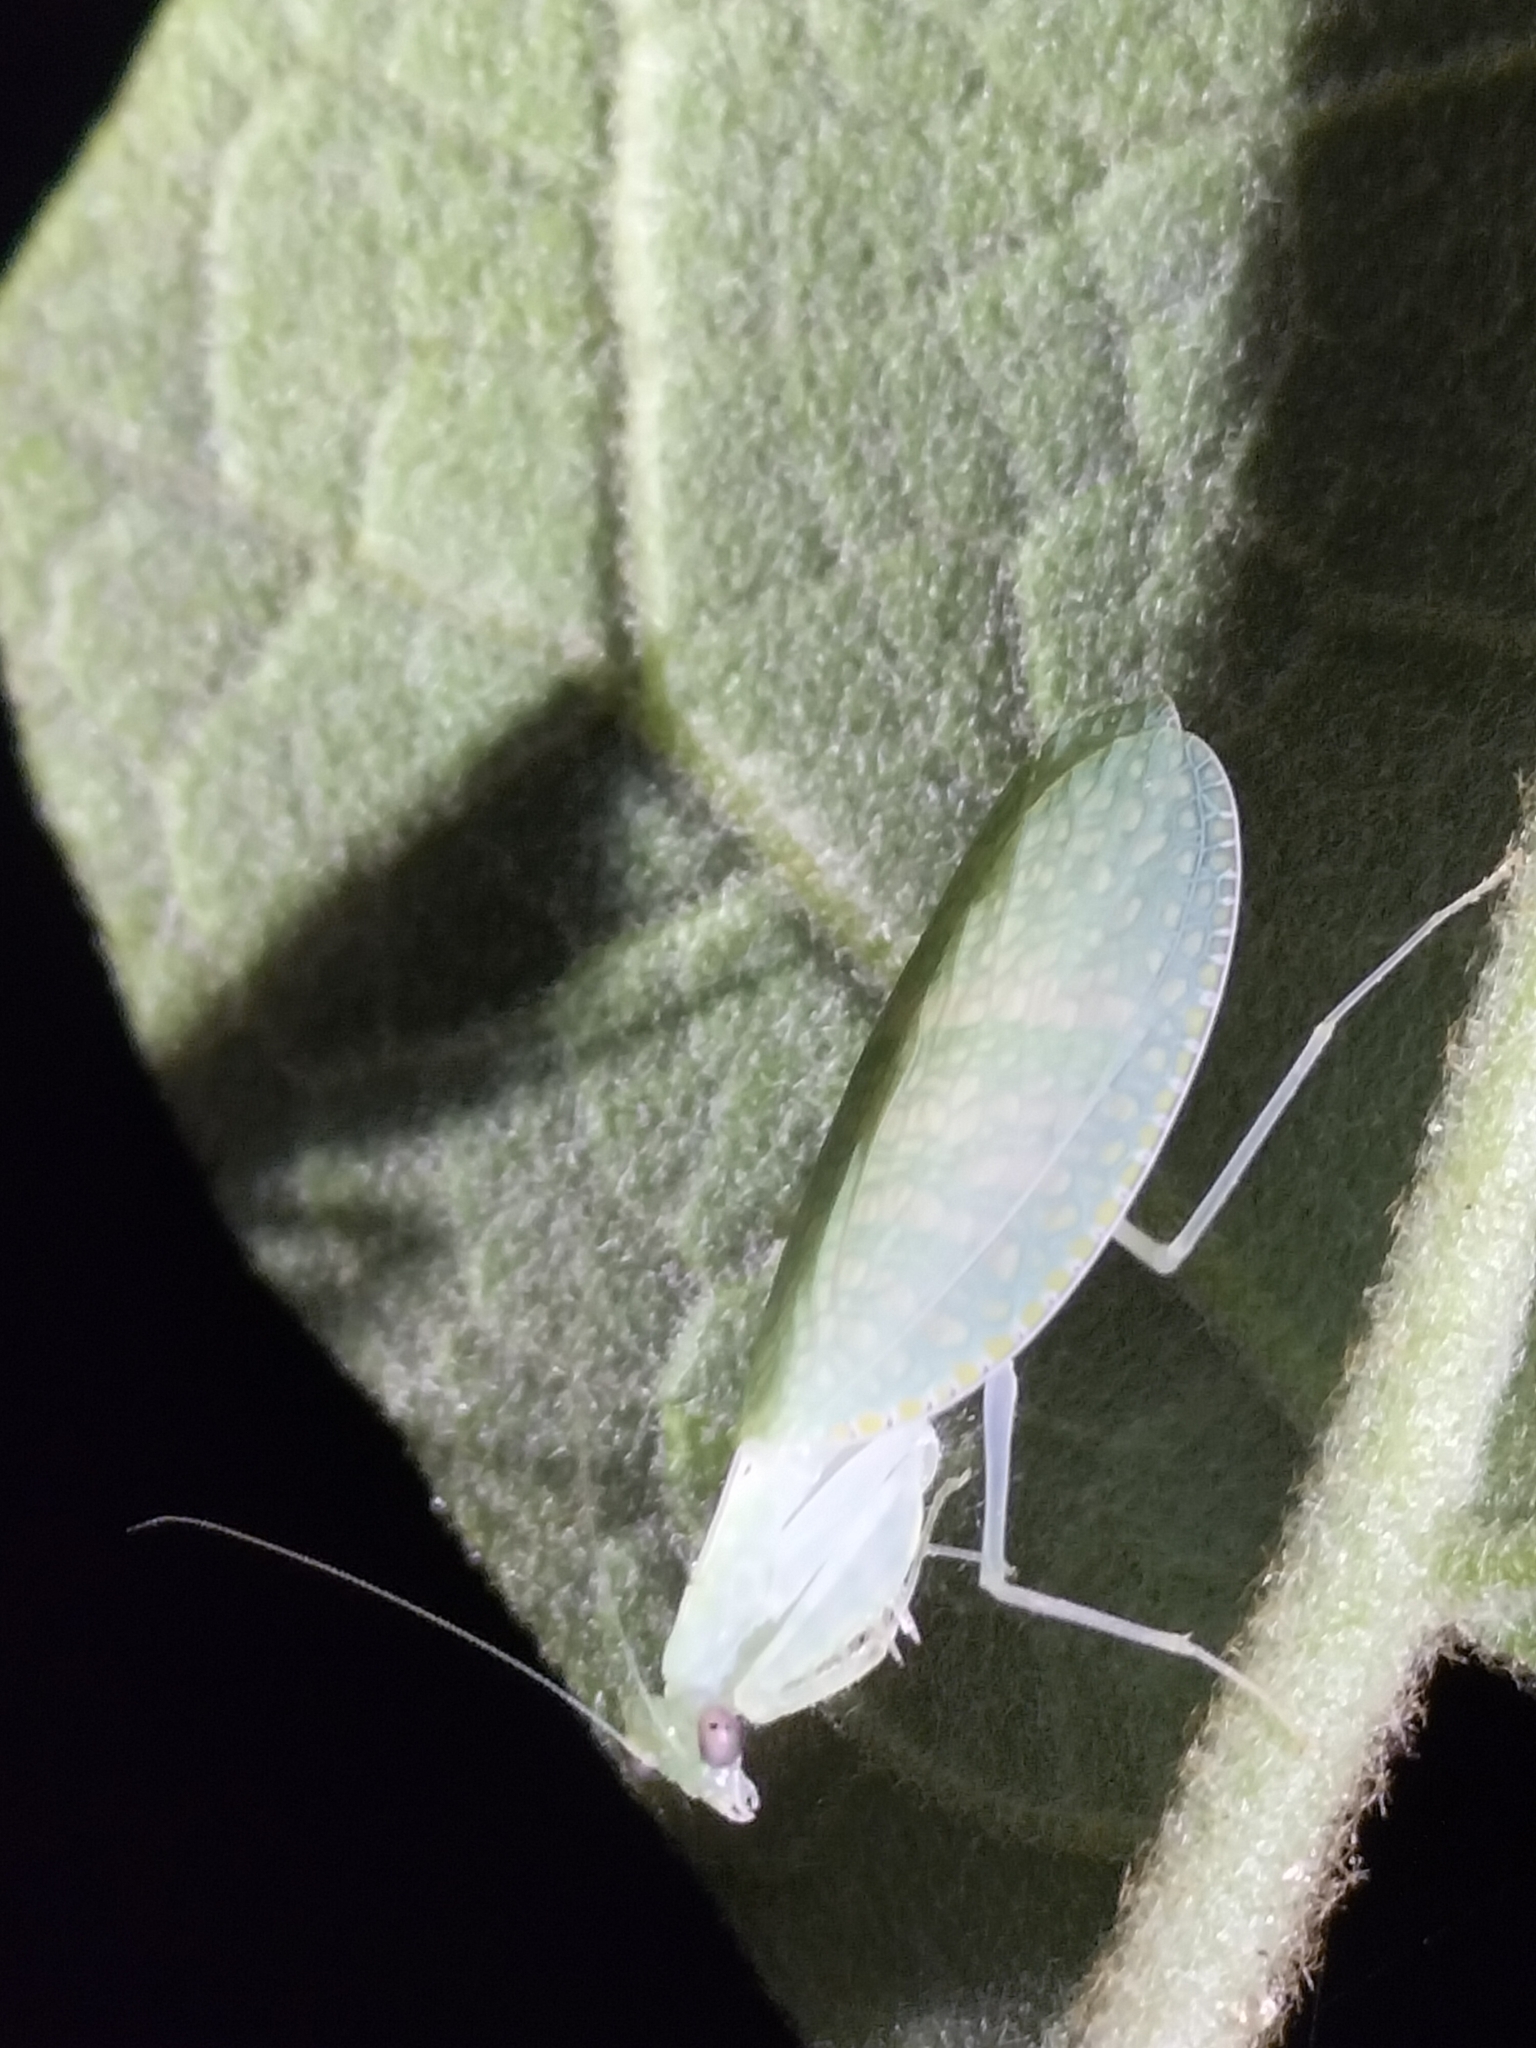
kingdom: Animalia
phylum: Arthropoda
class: Insecta
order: Mantodea
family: Nanomantidae
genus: Neomantis
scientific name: Neomantis australis
